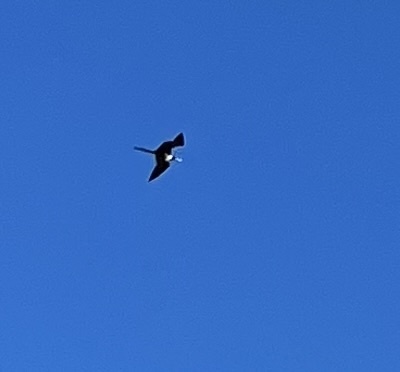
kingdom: Animalia
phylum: Chordata
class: Aves
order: Suliformes
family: Fregatidae
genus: Fregata
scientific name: Fregata magnificens
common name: Magnificent frigatebird
